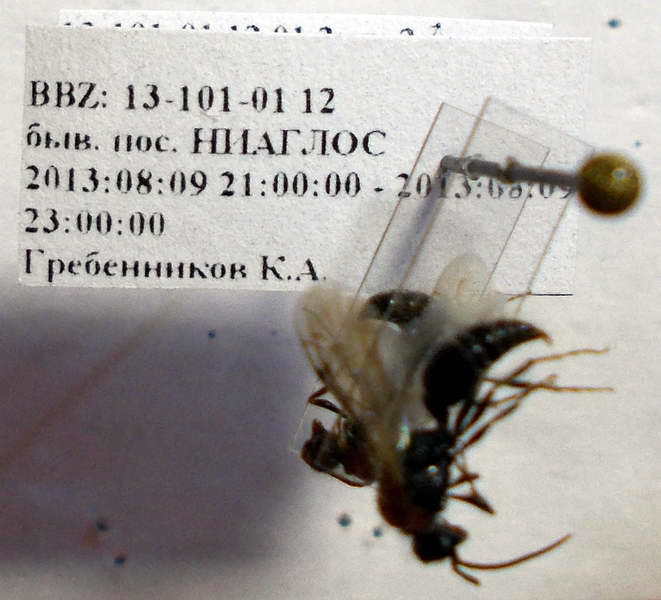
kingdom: Animalia
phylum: Arthropoda
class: Insecta
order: Hymenoptera
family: Mutillidae
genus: Smicromyrme
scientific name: Smicromyrme rufipes
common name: Small velvet ant
